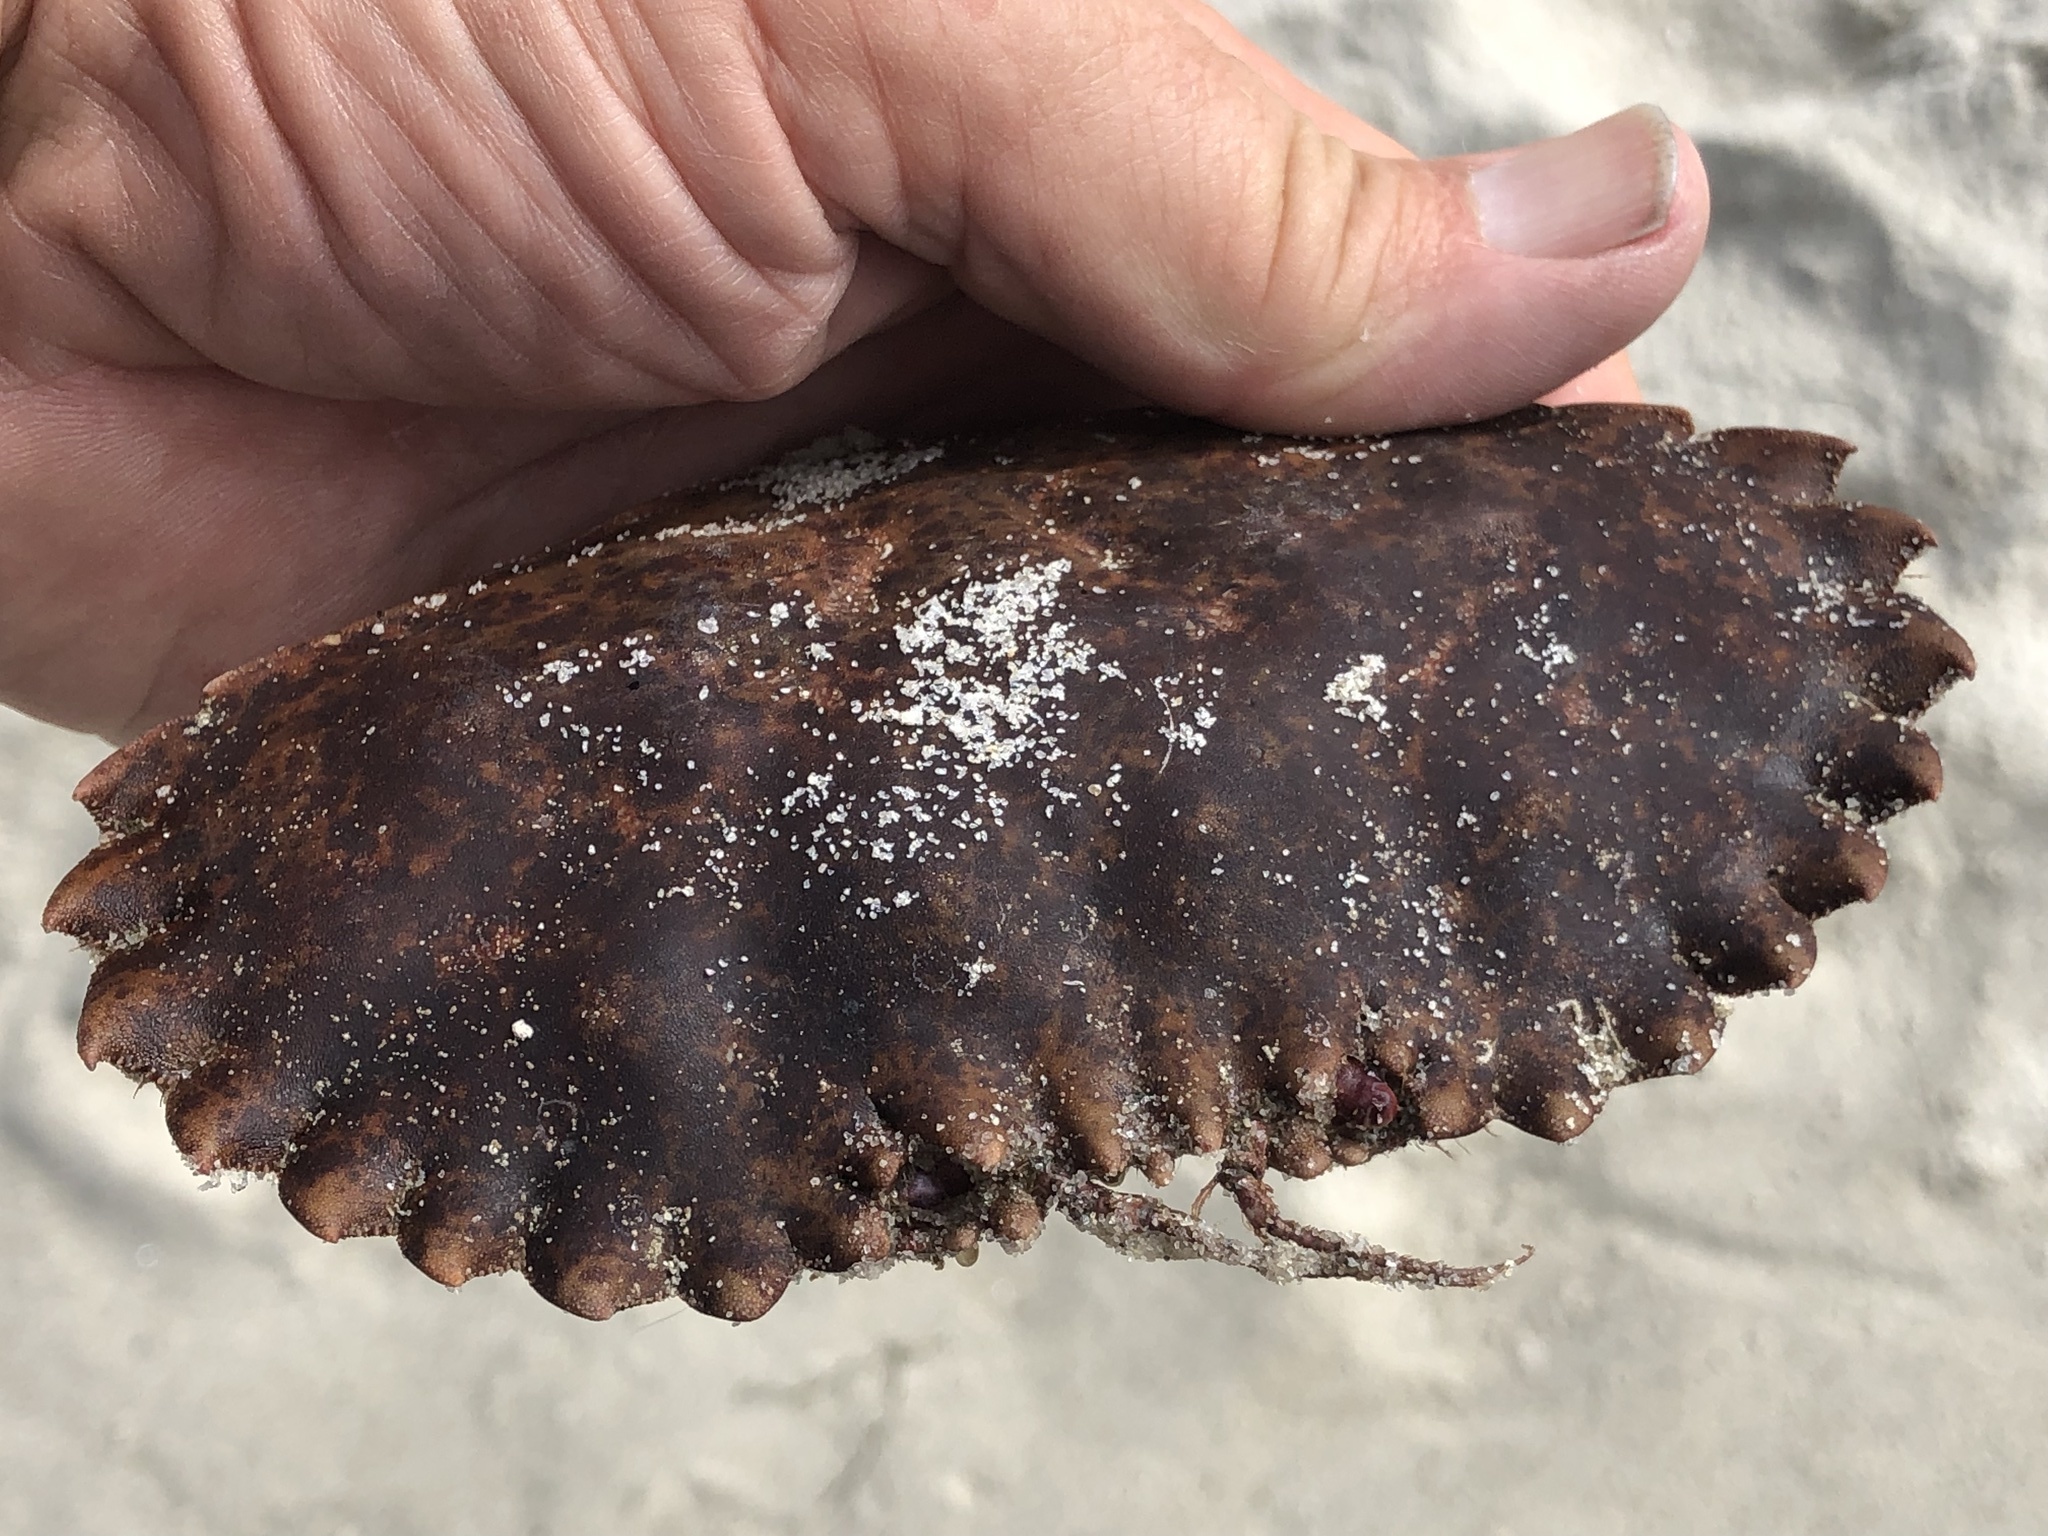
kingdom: Animalia
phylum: Arthropoda
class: Malacostraca
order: Decapoda
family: Cancridae
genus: Romaleon
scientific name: Romaleon antennarium
